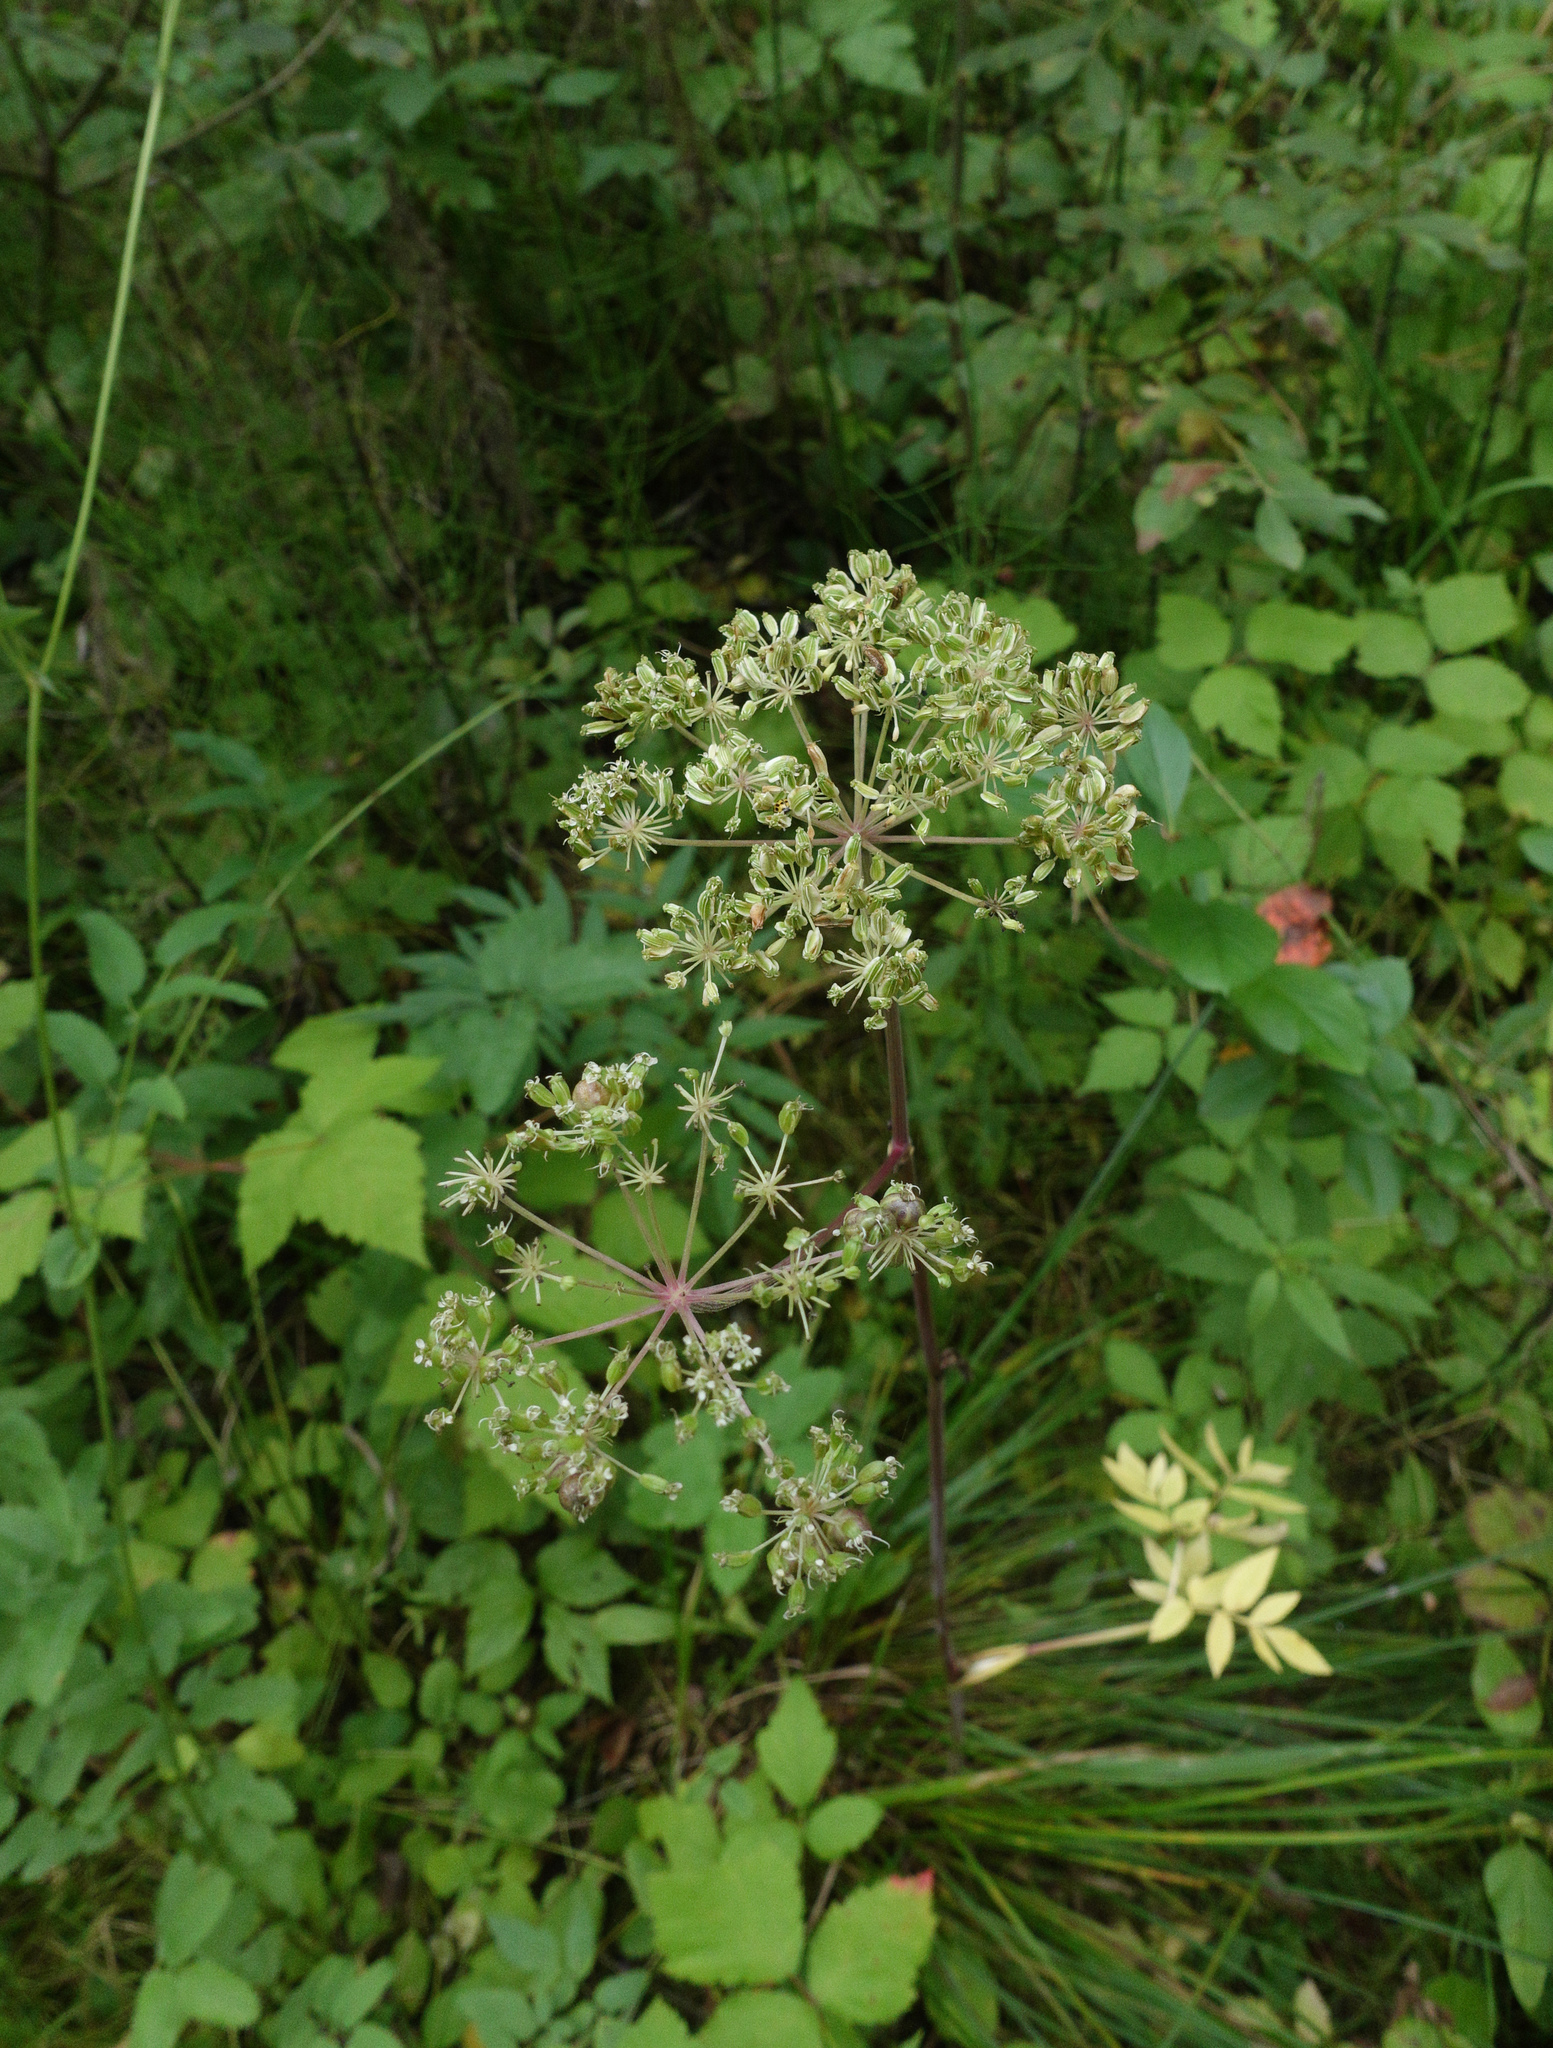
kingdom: Plantae
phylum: Tracheophyta
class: Magnoliopsida
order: Apiales
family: Apiaceae
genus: Angelica
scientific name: Angelica sylvestris
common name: Wild angelica
